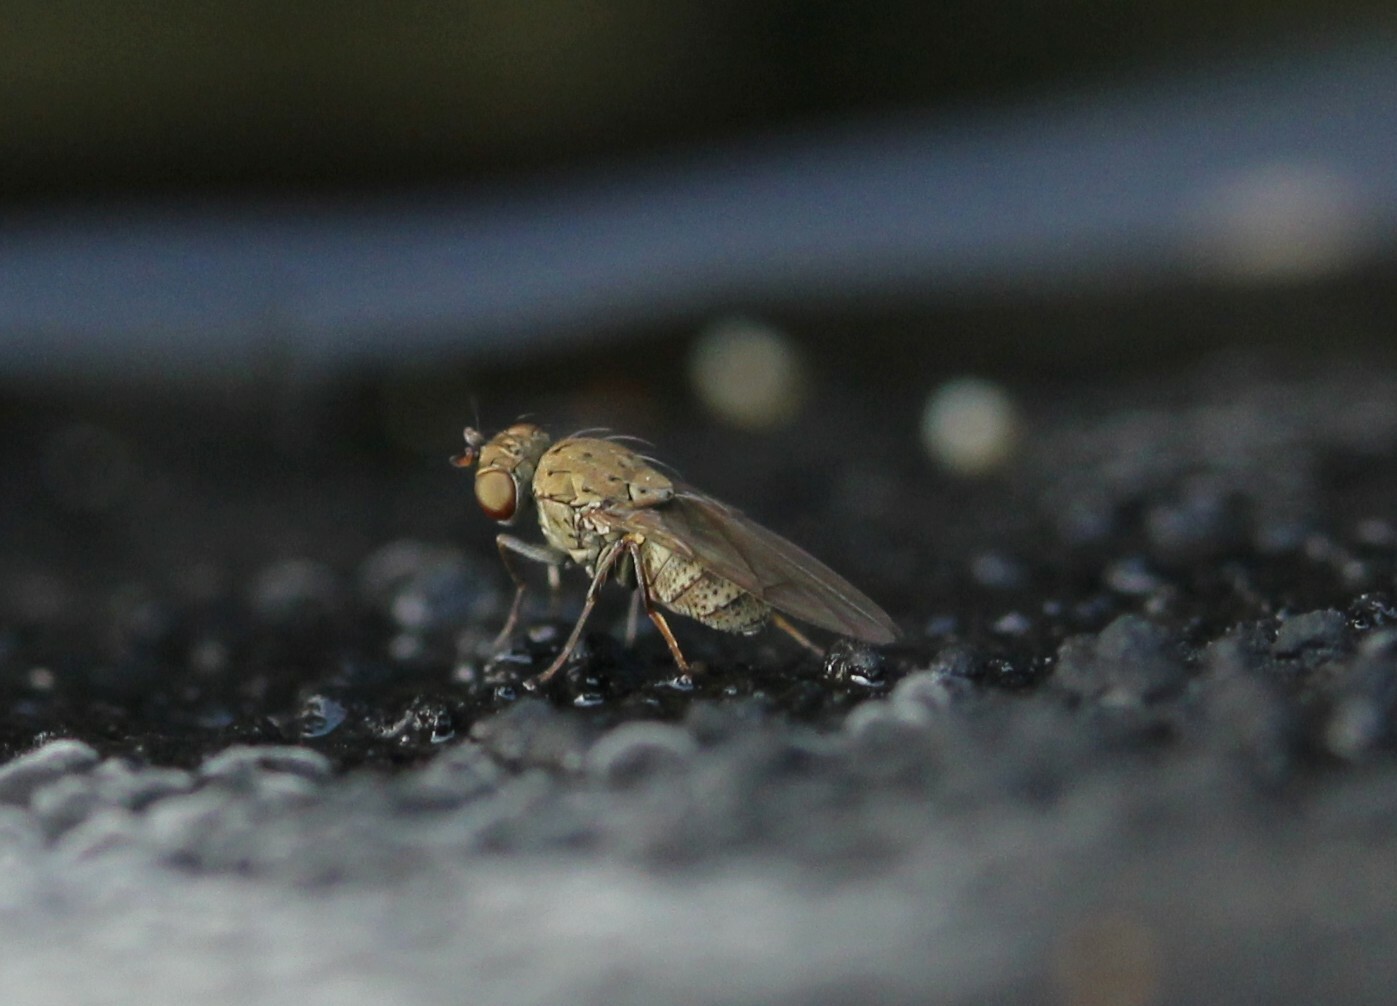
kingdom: Animalia
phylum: Arthropoda
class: Insecta
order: Diptera
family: Ephydridae
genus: Notiphila
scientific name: Notiphila
